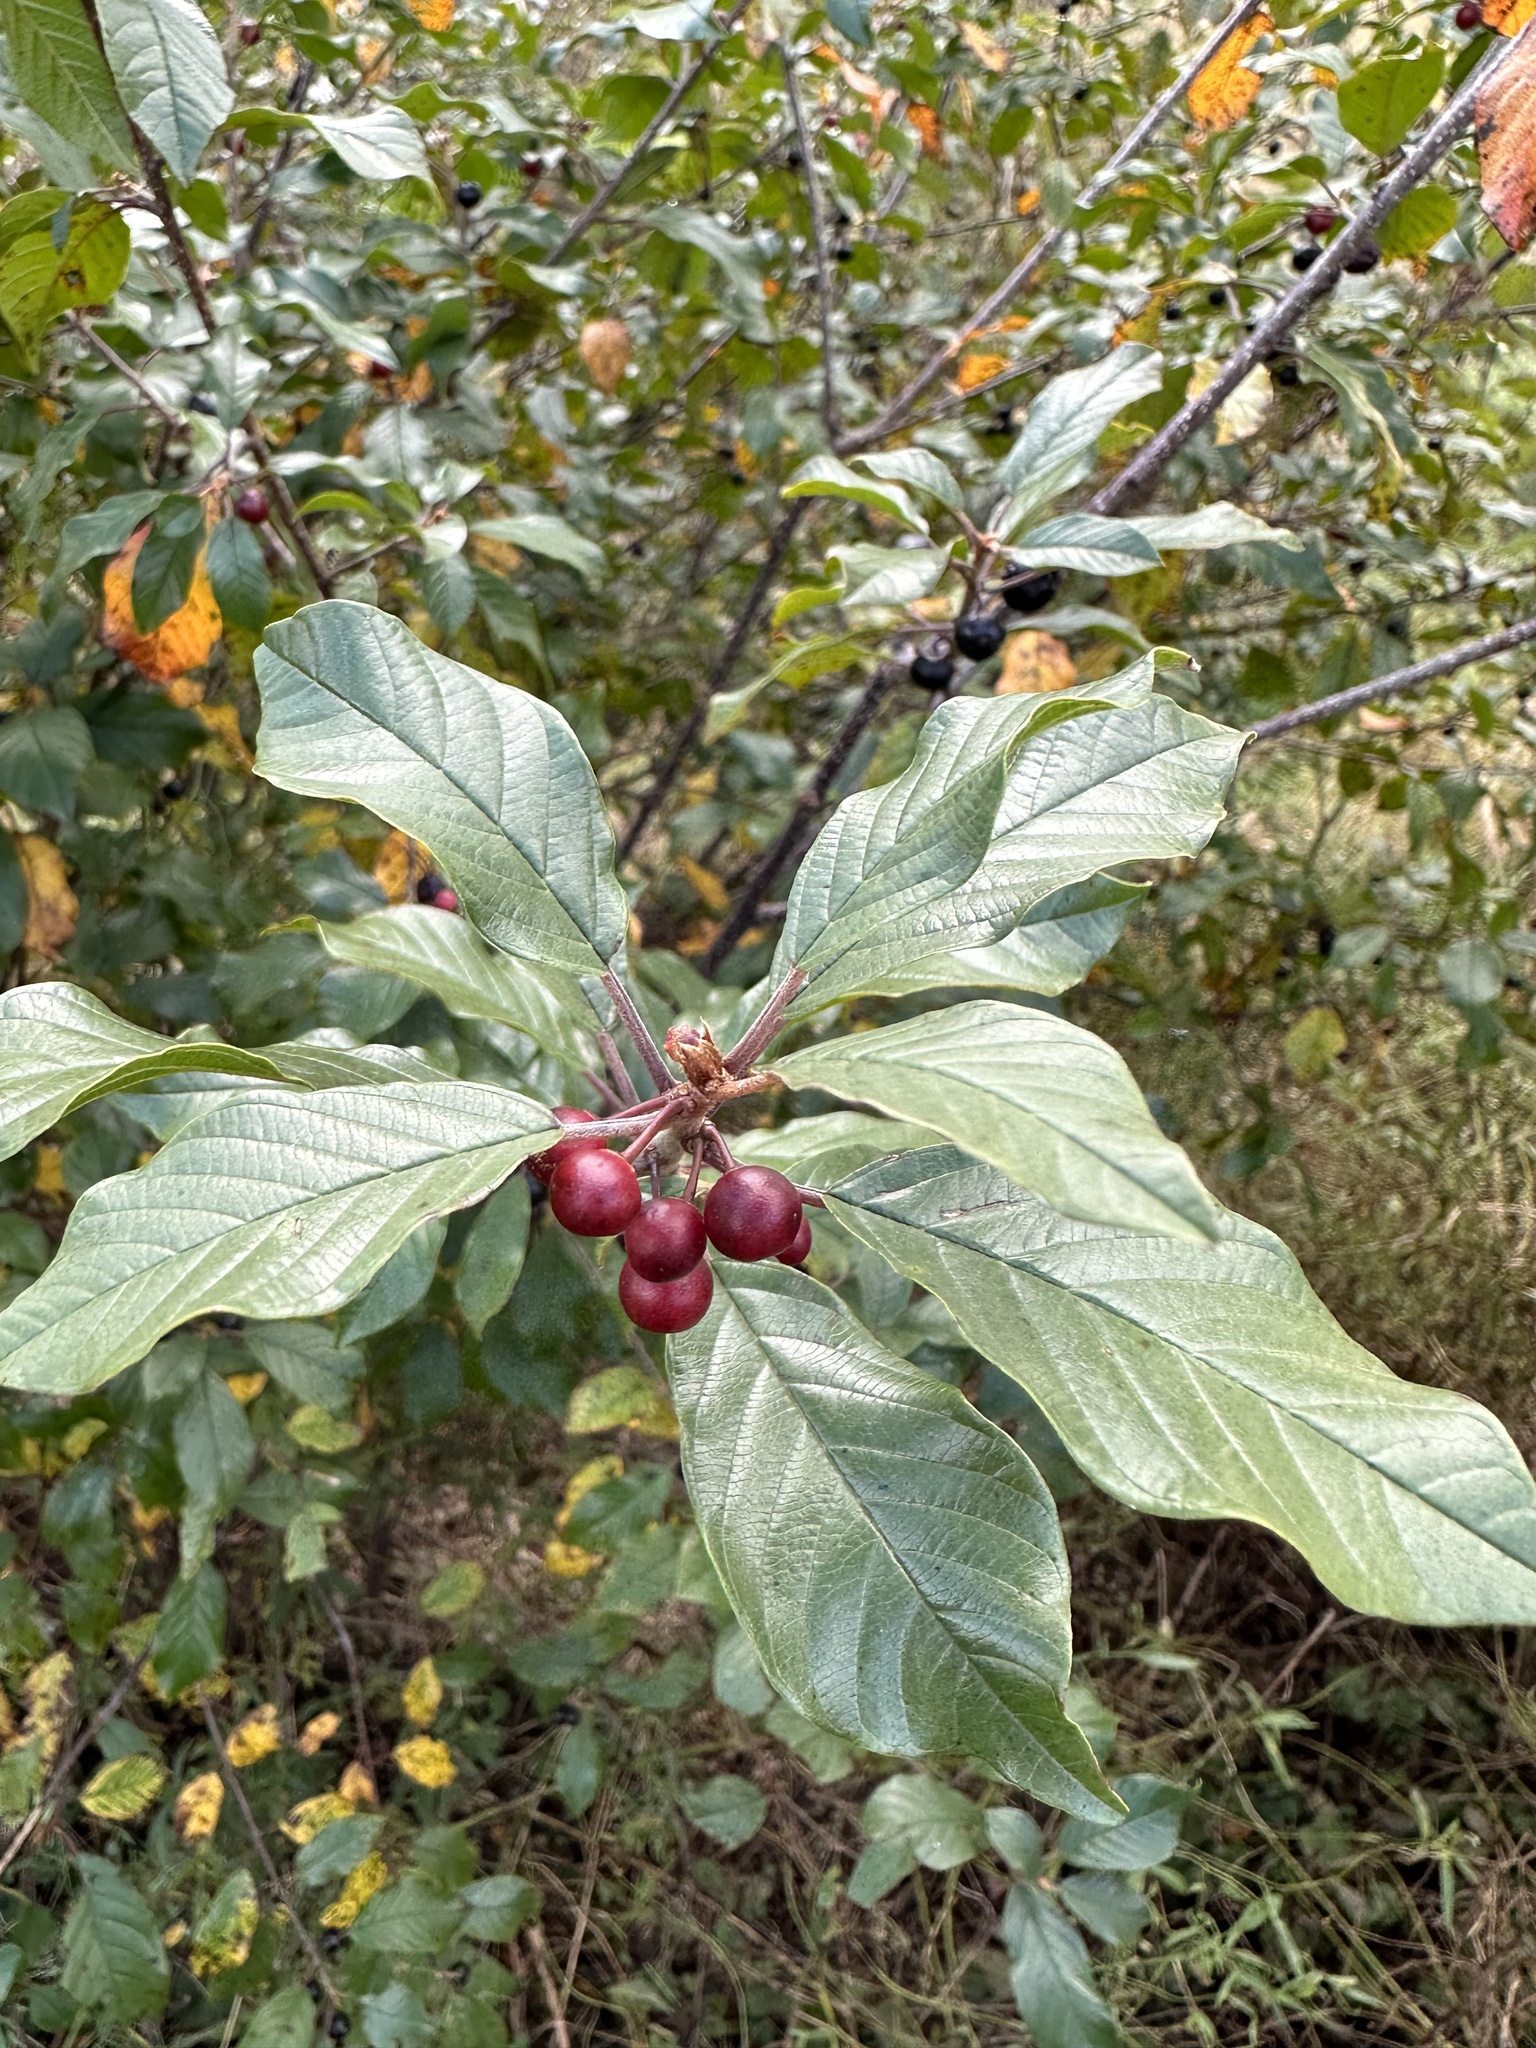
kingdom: Plantae
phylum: Tracheophyta
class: Magnoliopsida
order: Rosales
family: Rhamnaceae
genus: Frangula
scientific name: Frangula alnus
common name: Alder buckthorn
